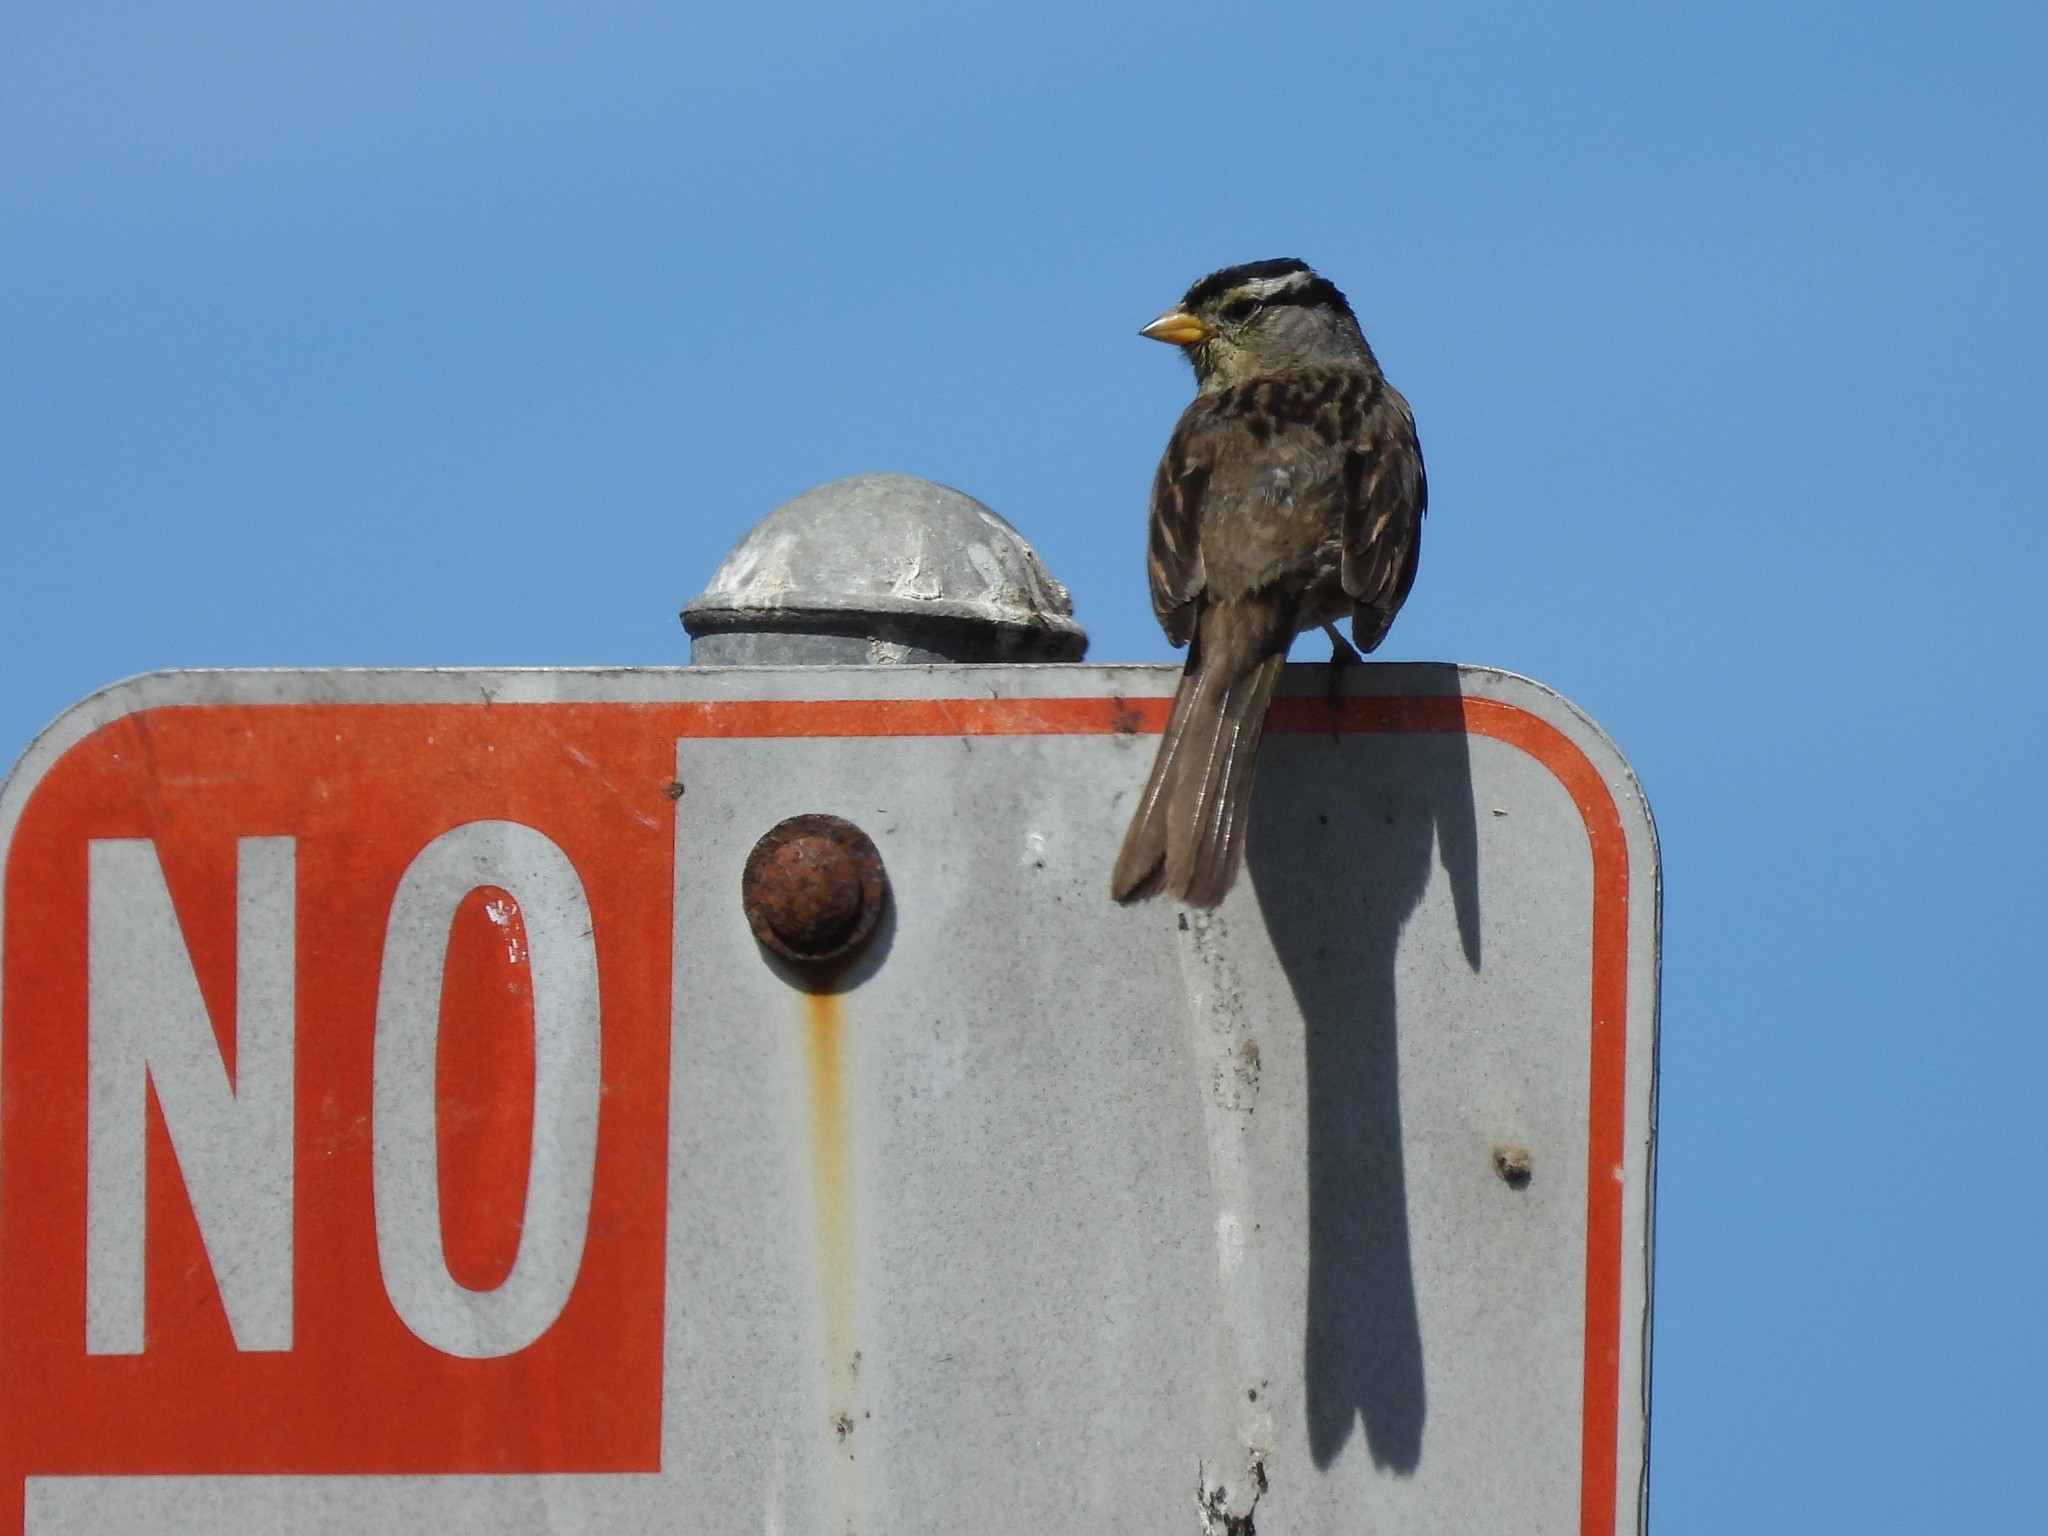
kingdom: Animalia
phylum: Chordata
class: Aves
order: Passeriformes
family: Passerellidae
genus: Zonotrichia
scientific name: Zonotrichia leucophrys
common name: White-crowned sparrow
